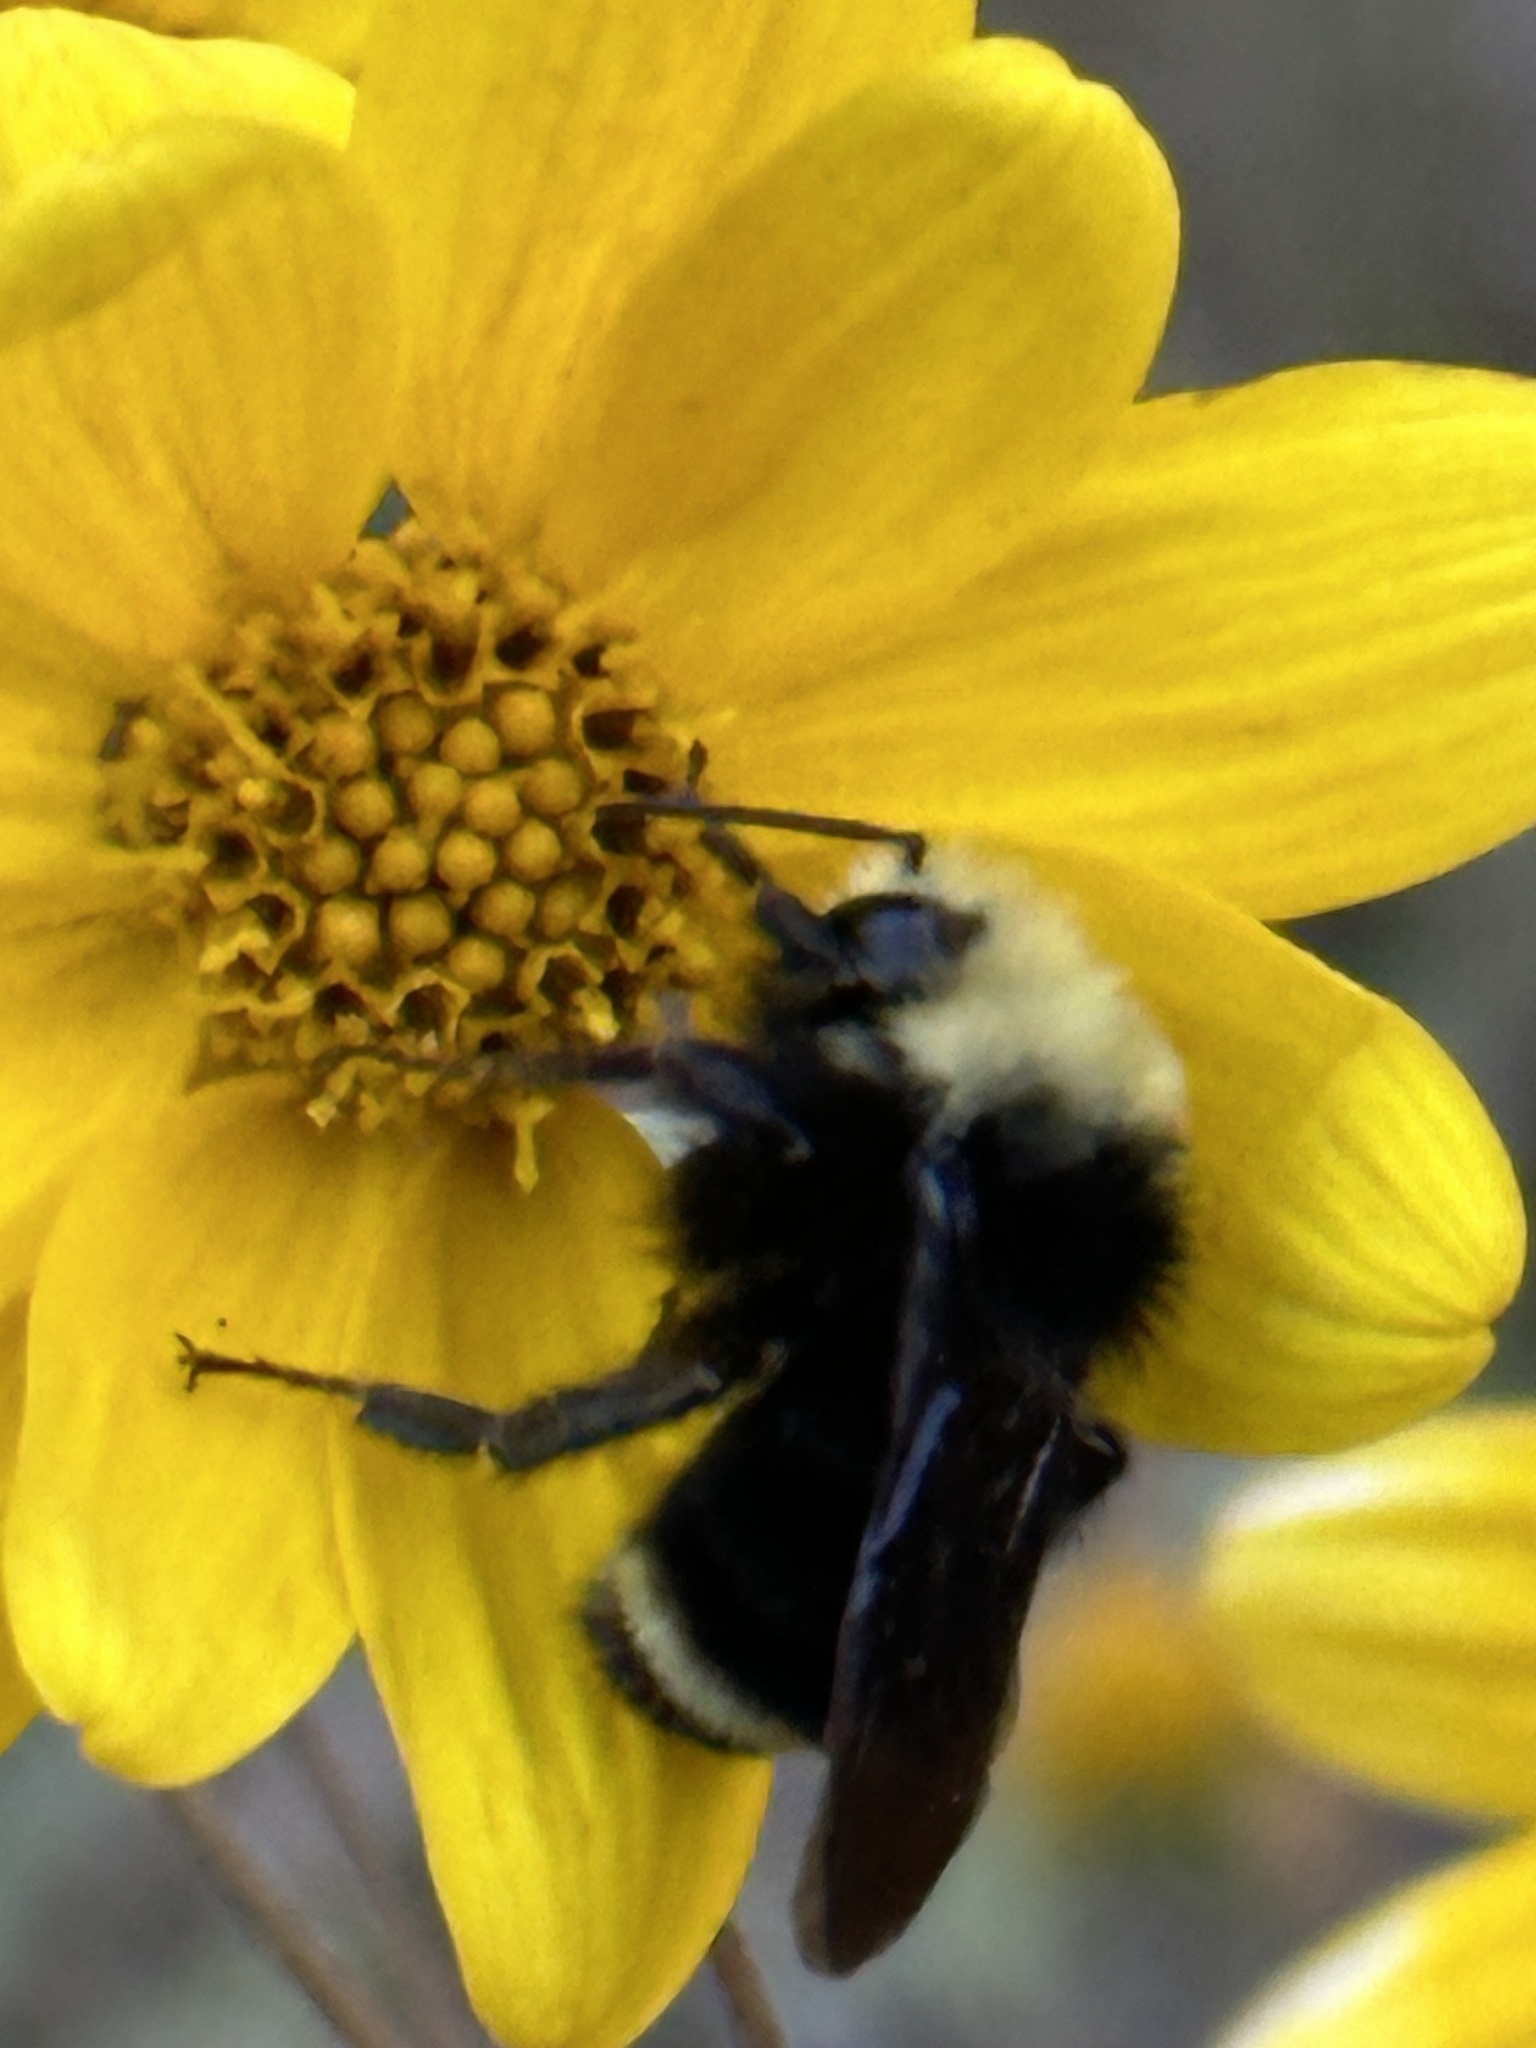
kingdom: Animalia
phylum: Arthropoda
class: Insecta
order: Hymenoptera
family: Apidae
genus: Bombus
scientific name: Bombus vosnesenskii
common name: Vosnesensky bumble bee
